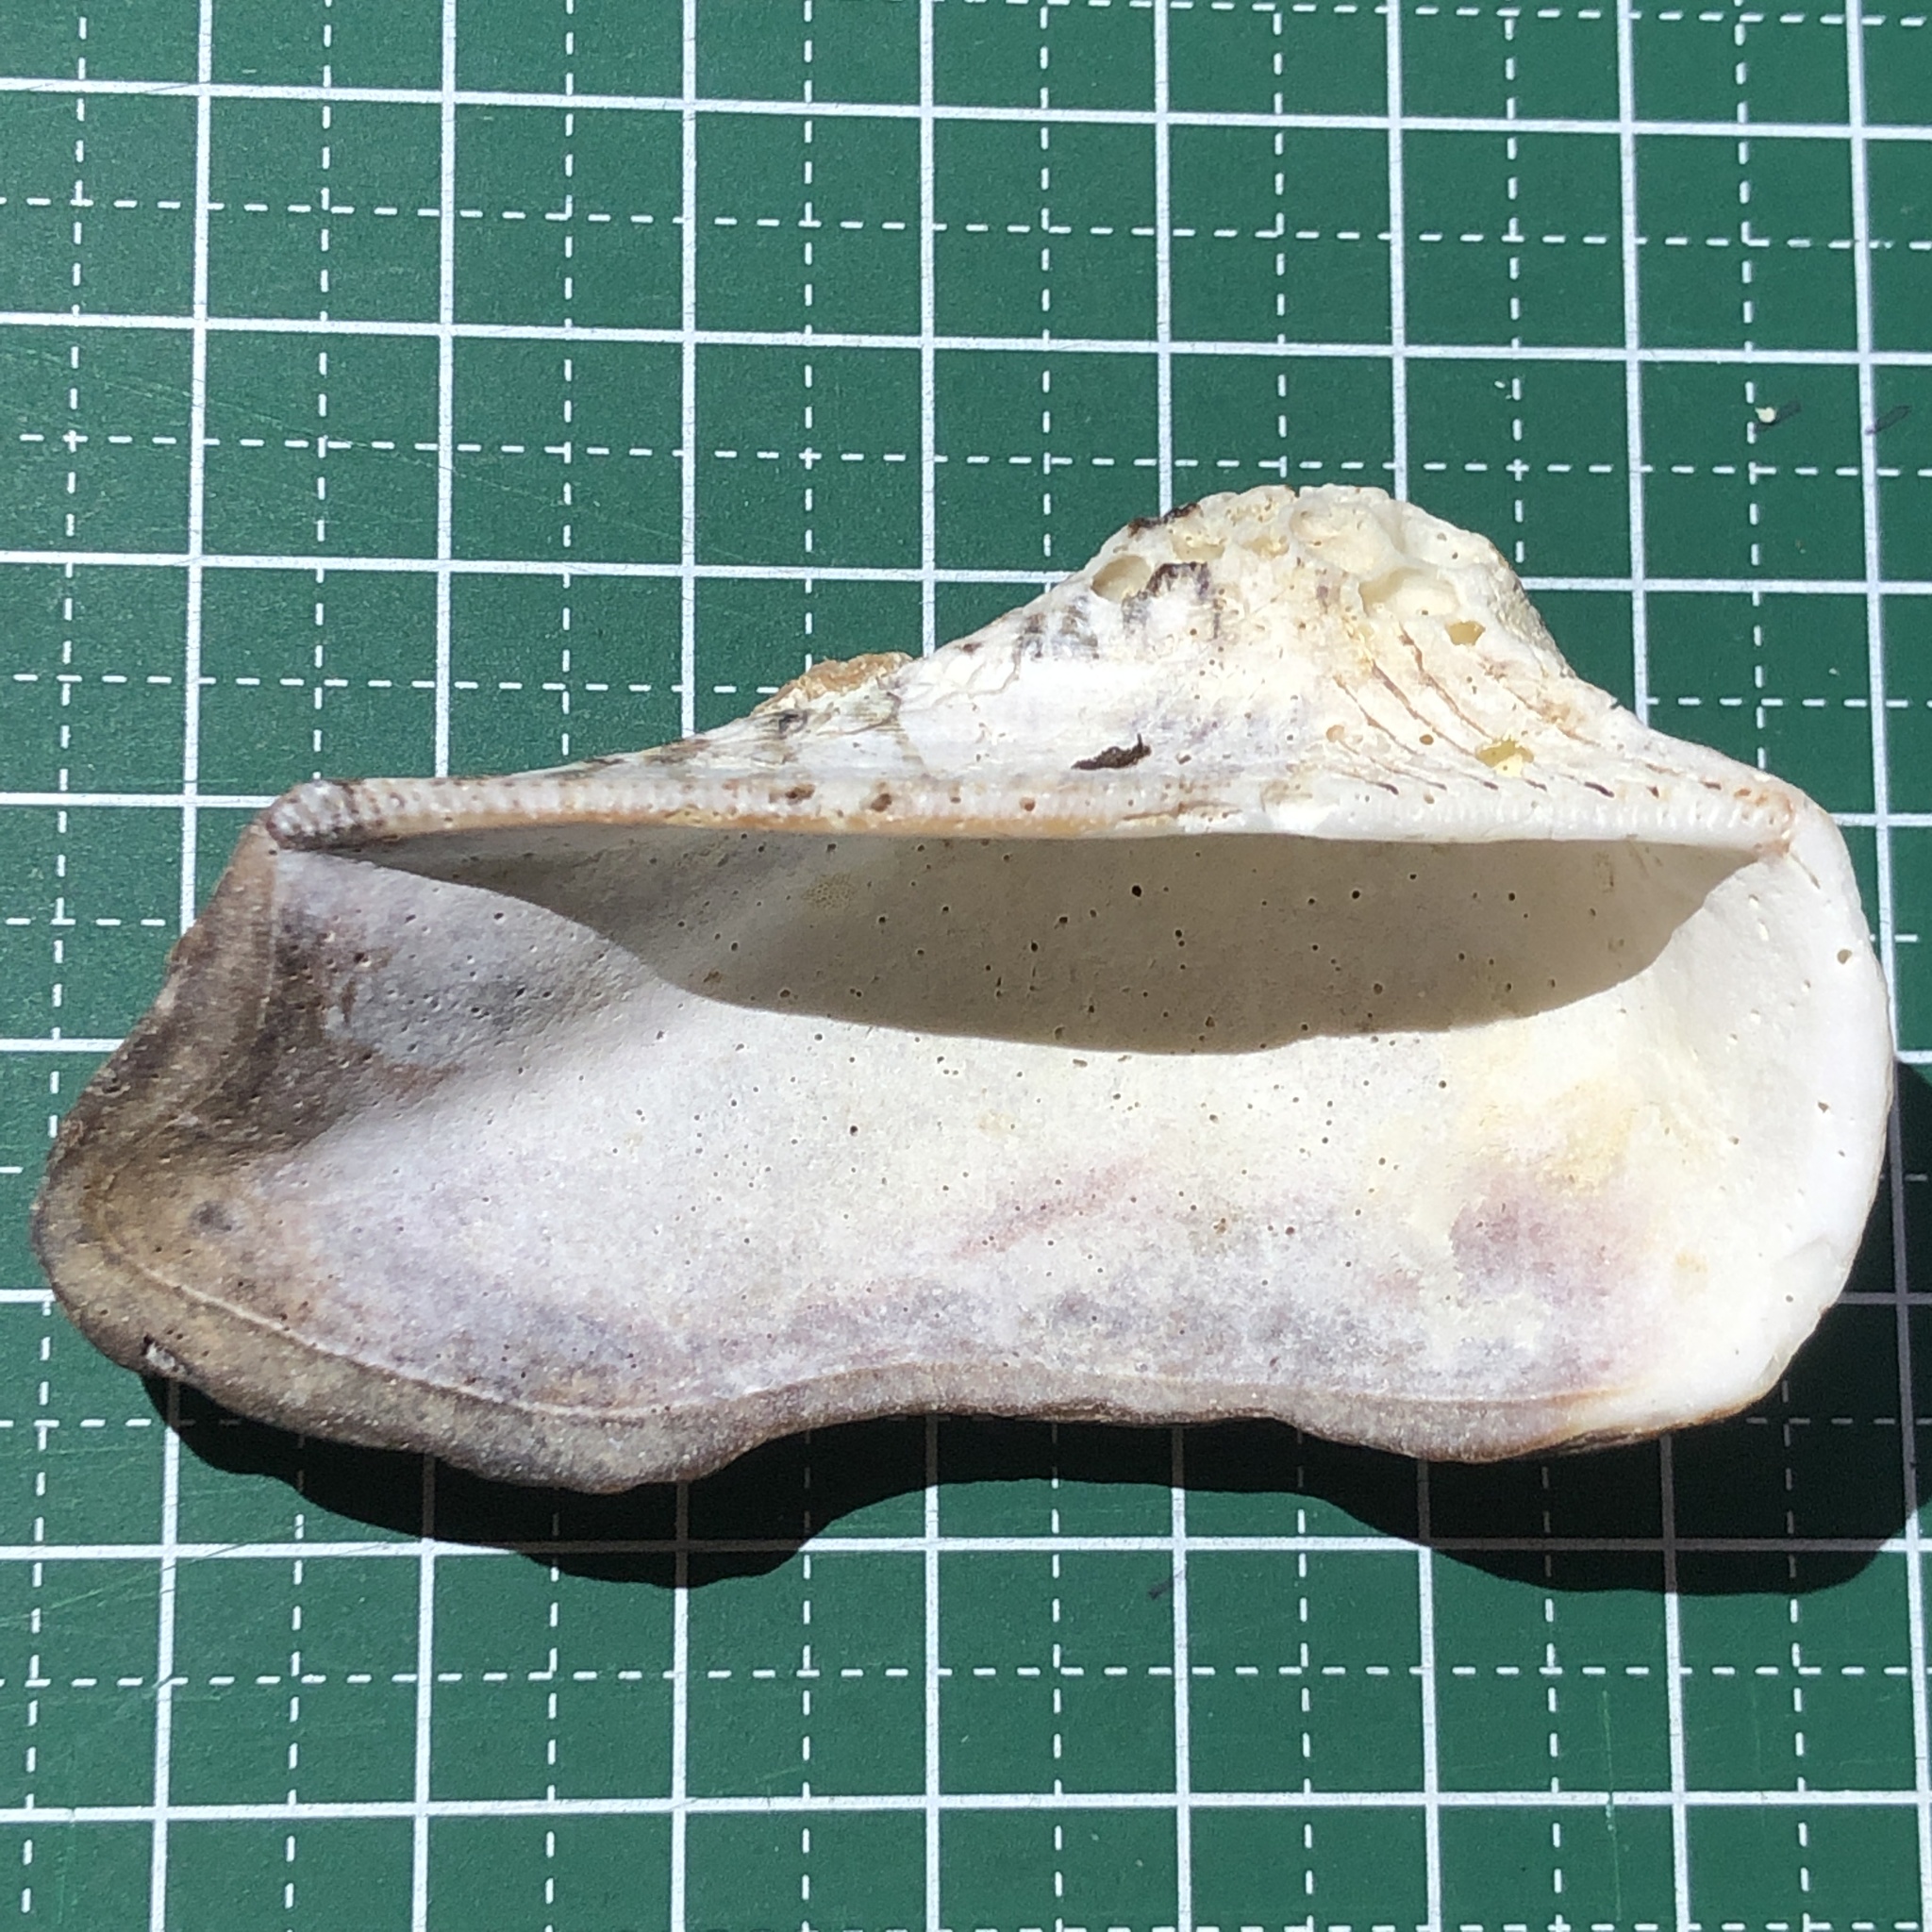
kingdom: Animalia
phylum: Mollusca
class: Bivalvia
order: Arcida
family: Arcidae
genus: Lamarcka
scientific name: Lamarcka ventricosa
